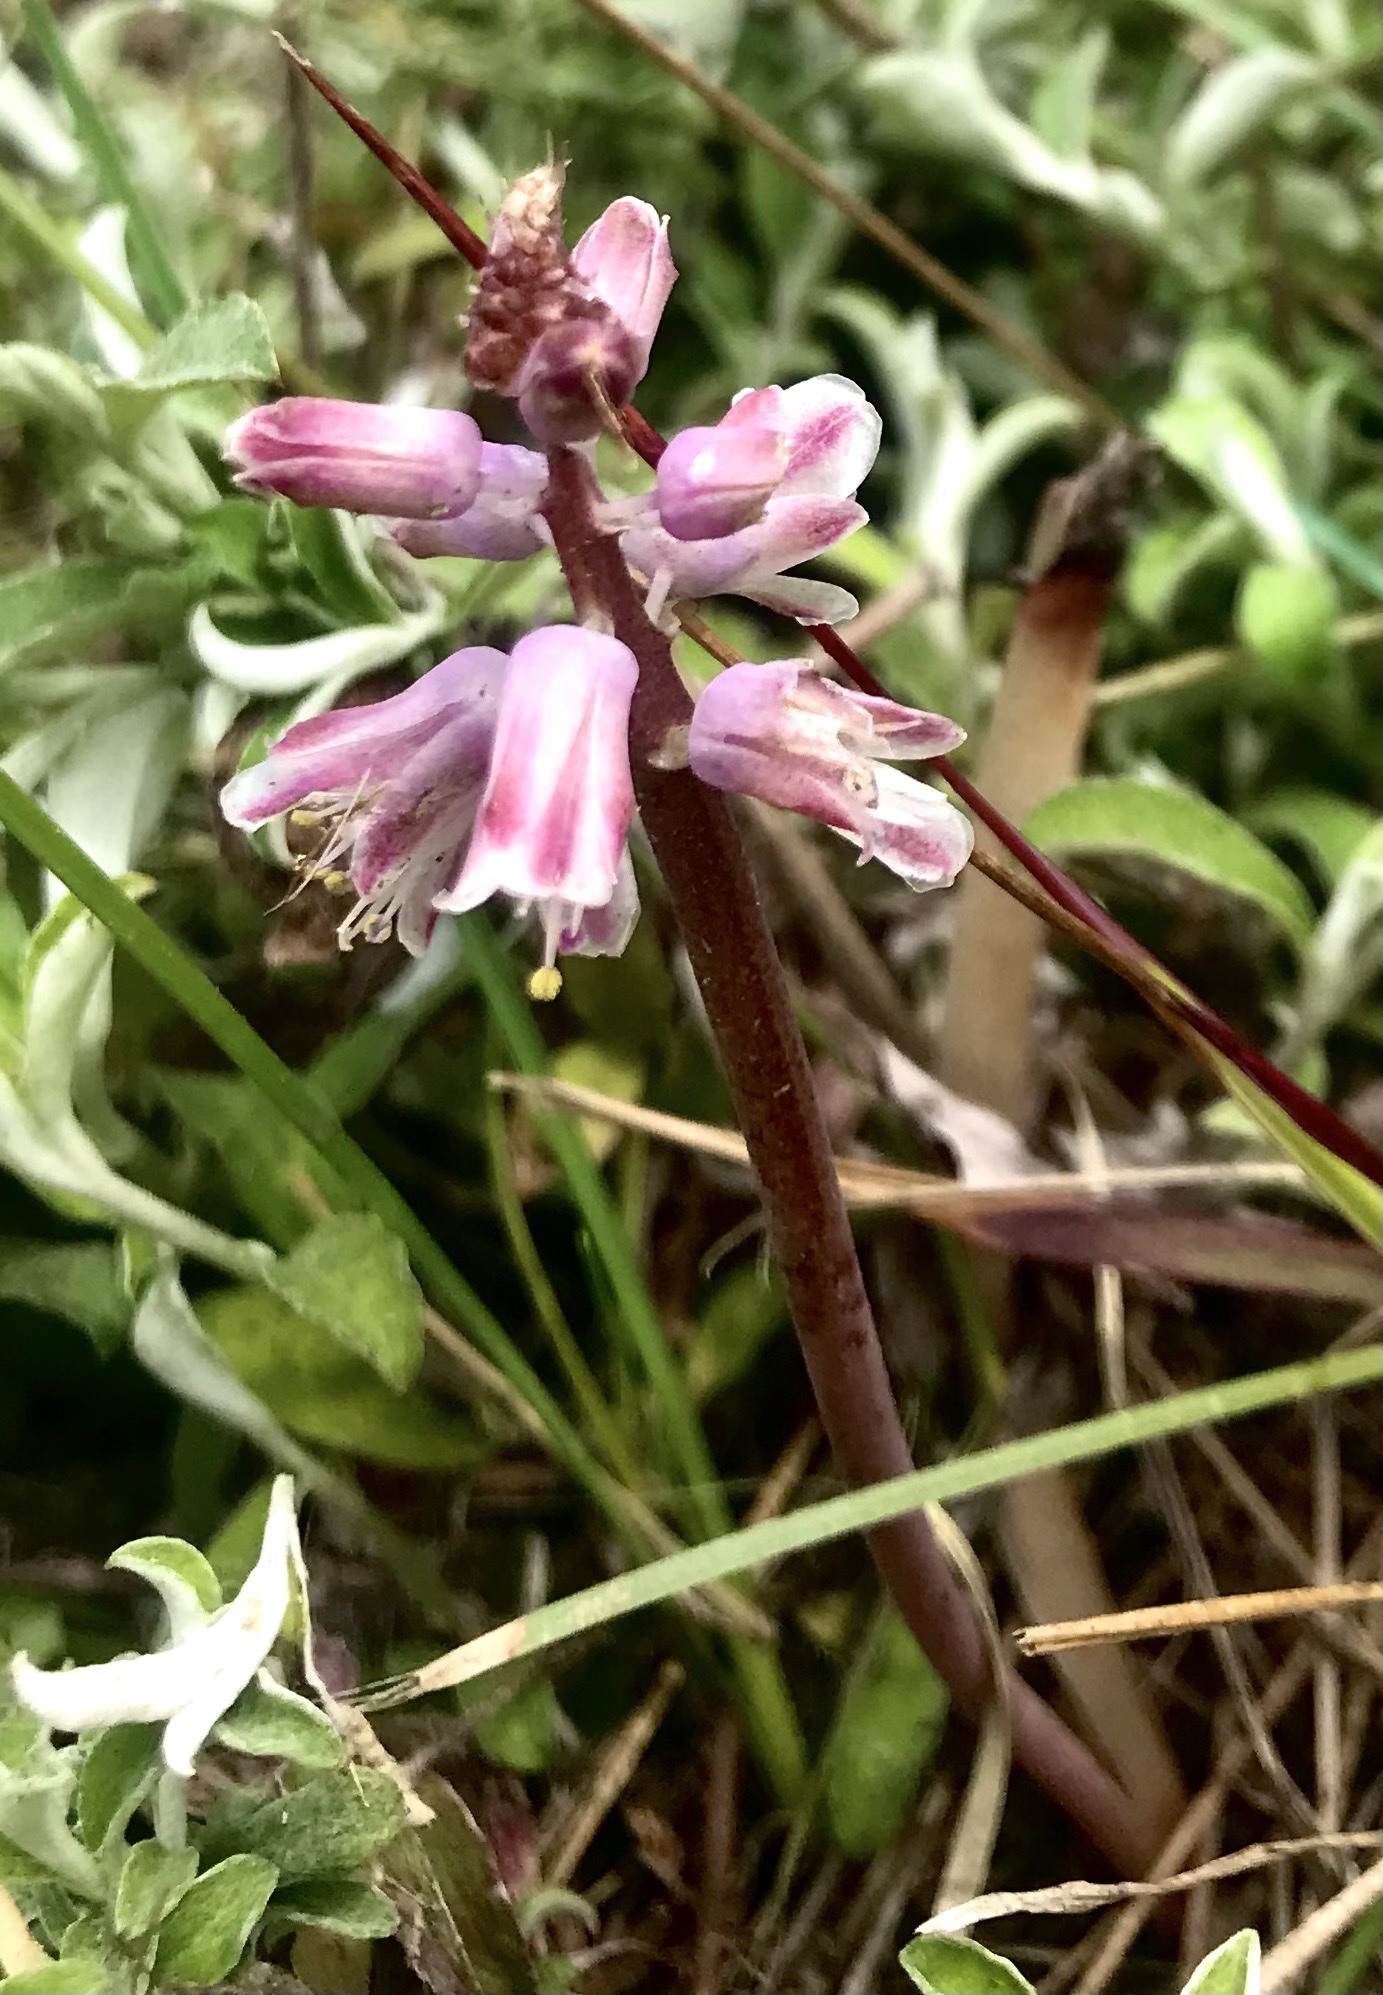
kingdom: Plantae
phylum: Tracheophyta
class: Liliopsida
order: Asparagales
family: Asparagaceae
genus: Lachenalia
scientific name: Lachenalia youngii
